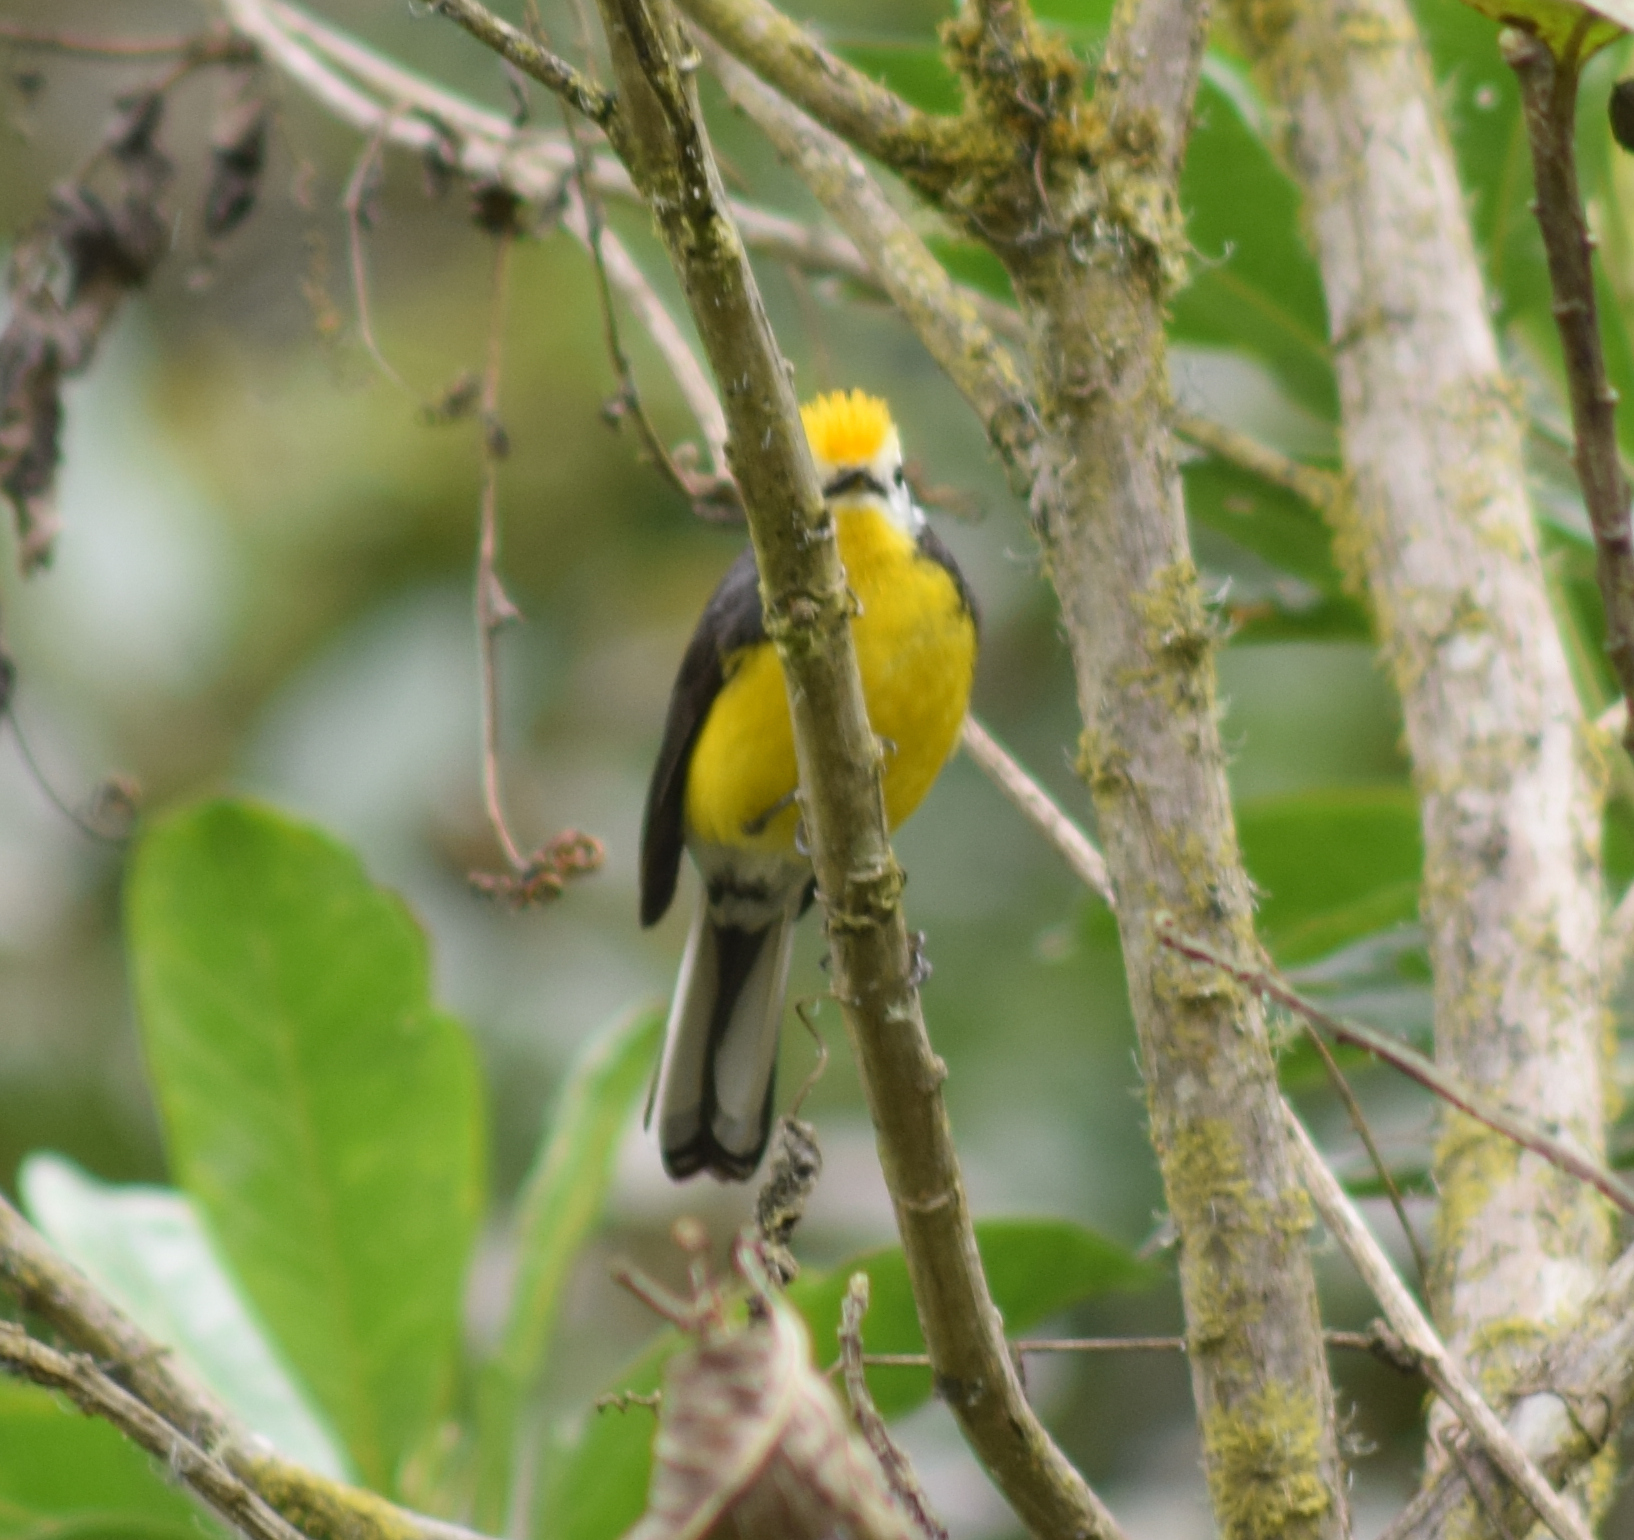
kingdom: Animalia
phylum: Chordata
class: Aves
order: Passeriformes
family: Parulidae
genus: Myioborus
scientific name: Myioborus ornatus
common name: Golden-fronted whitestart
